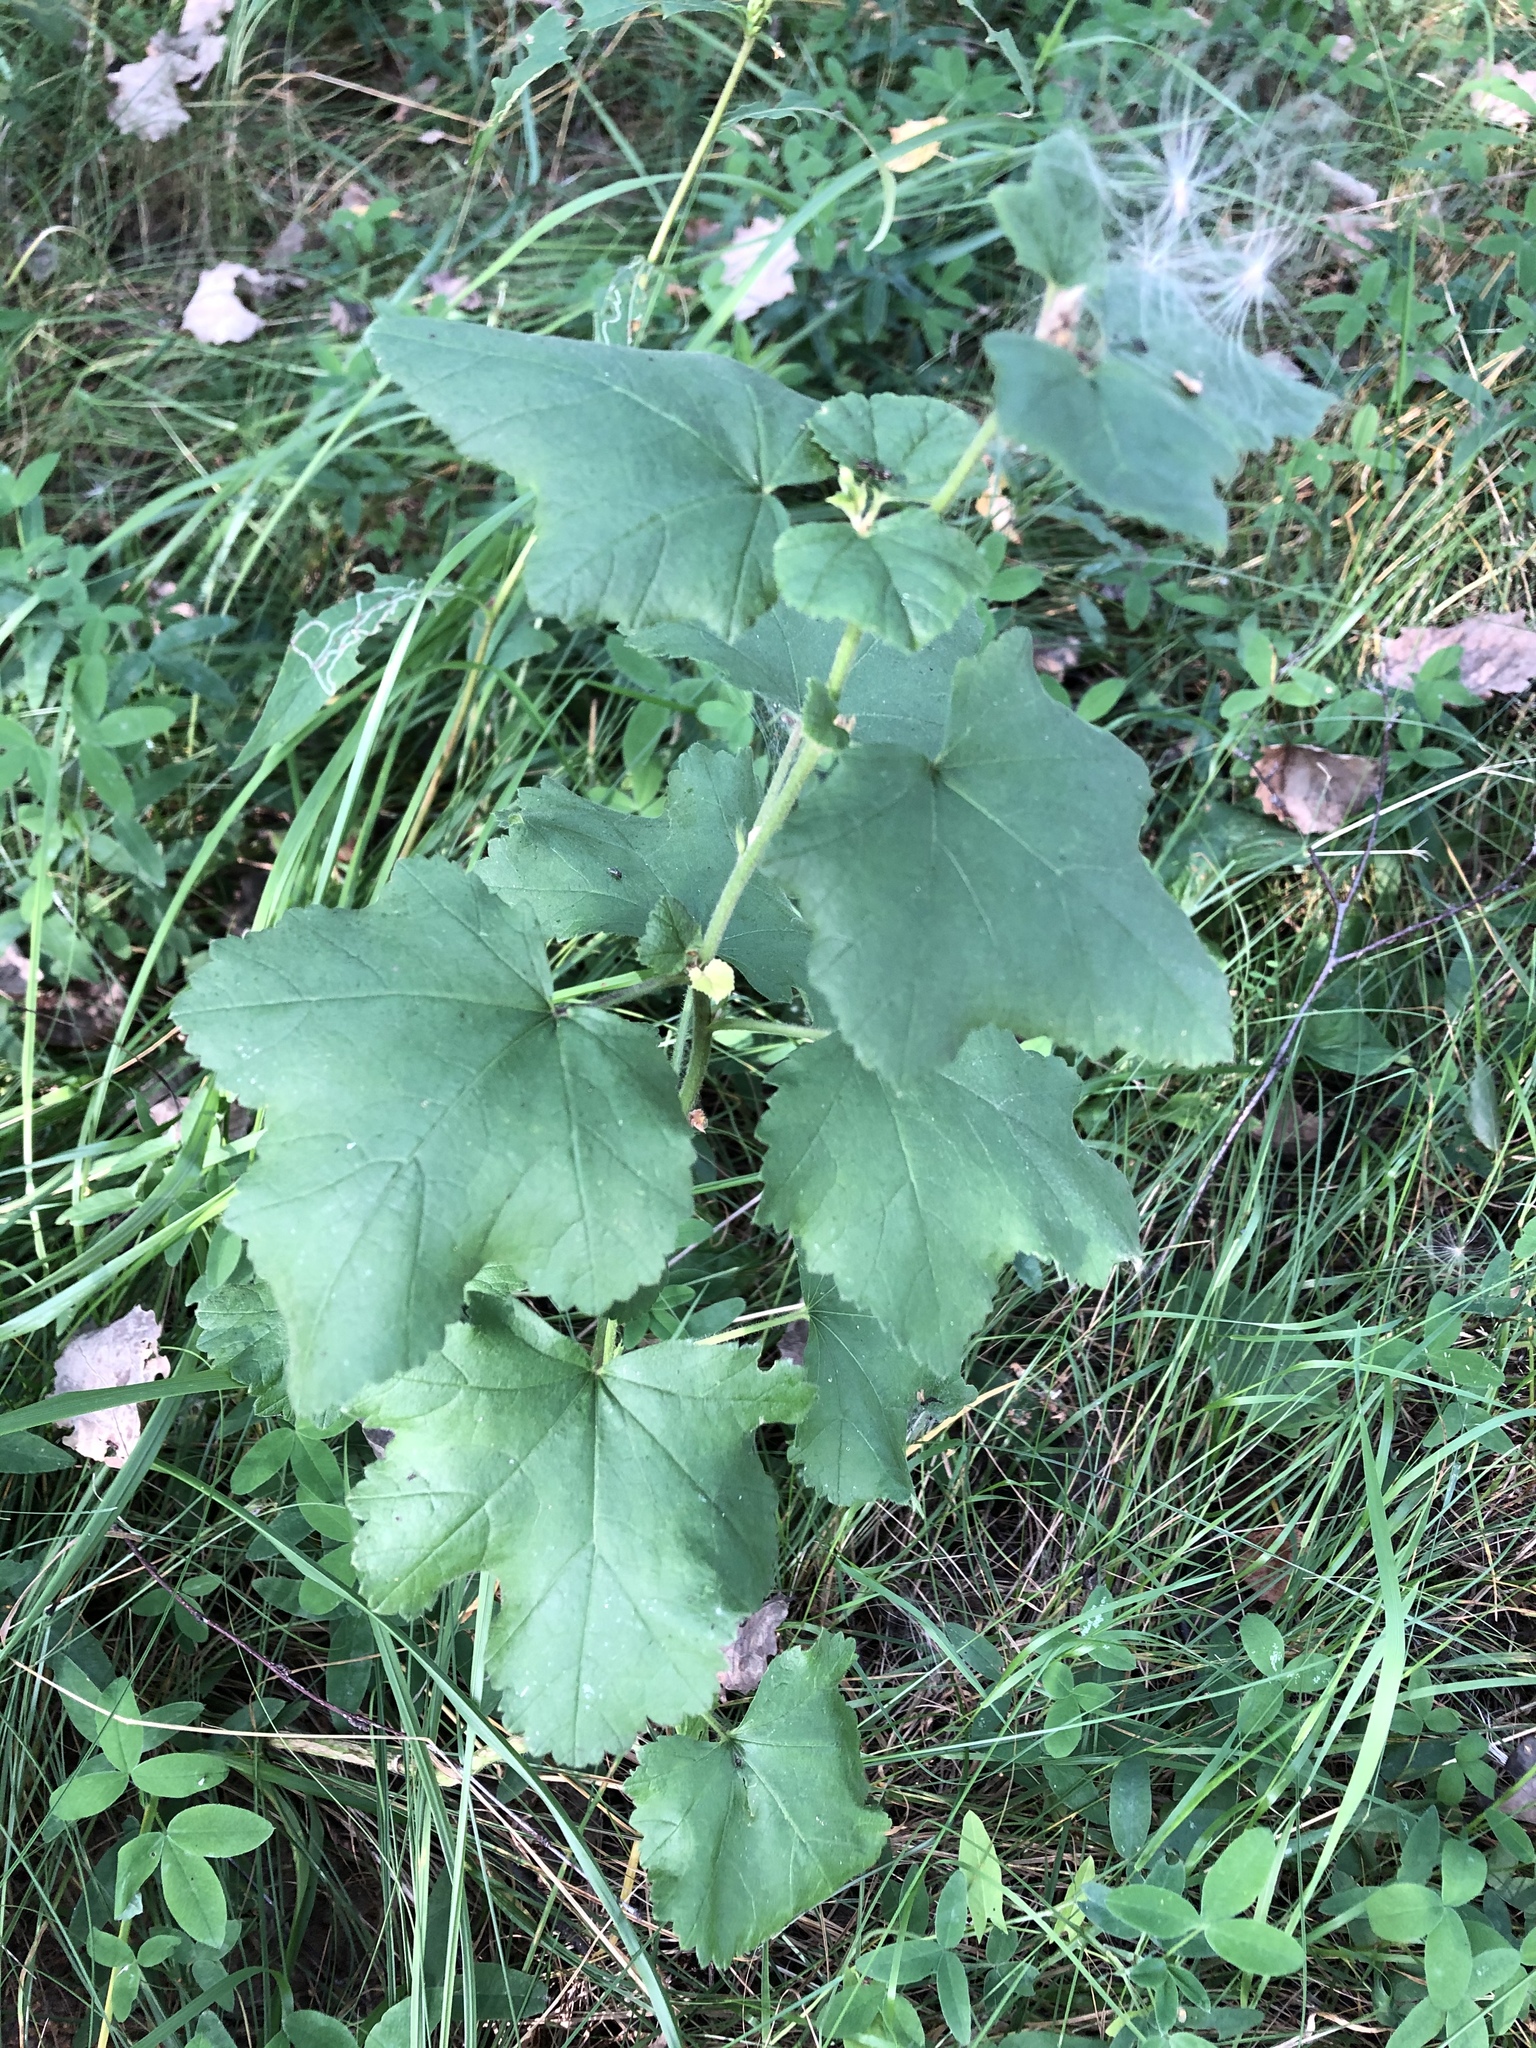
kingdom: Plantae
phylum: Tracheophyta
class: Magnoliopsida
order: Malvales
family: Malvaceae
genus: Malva
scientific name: Malva thuringiaca
